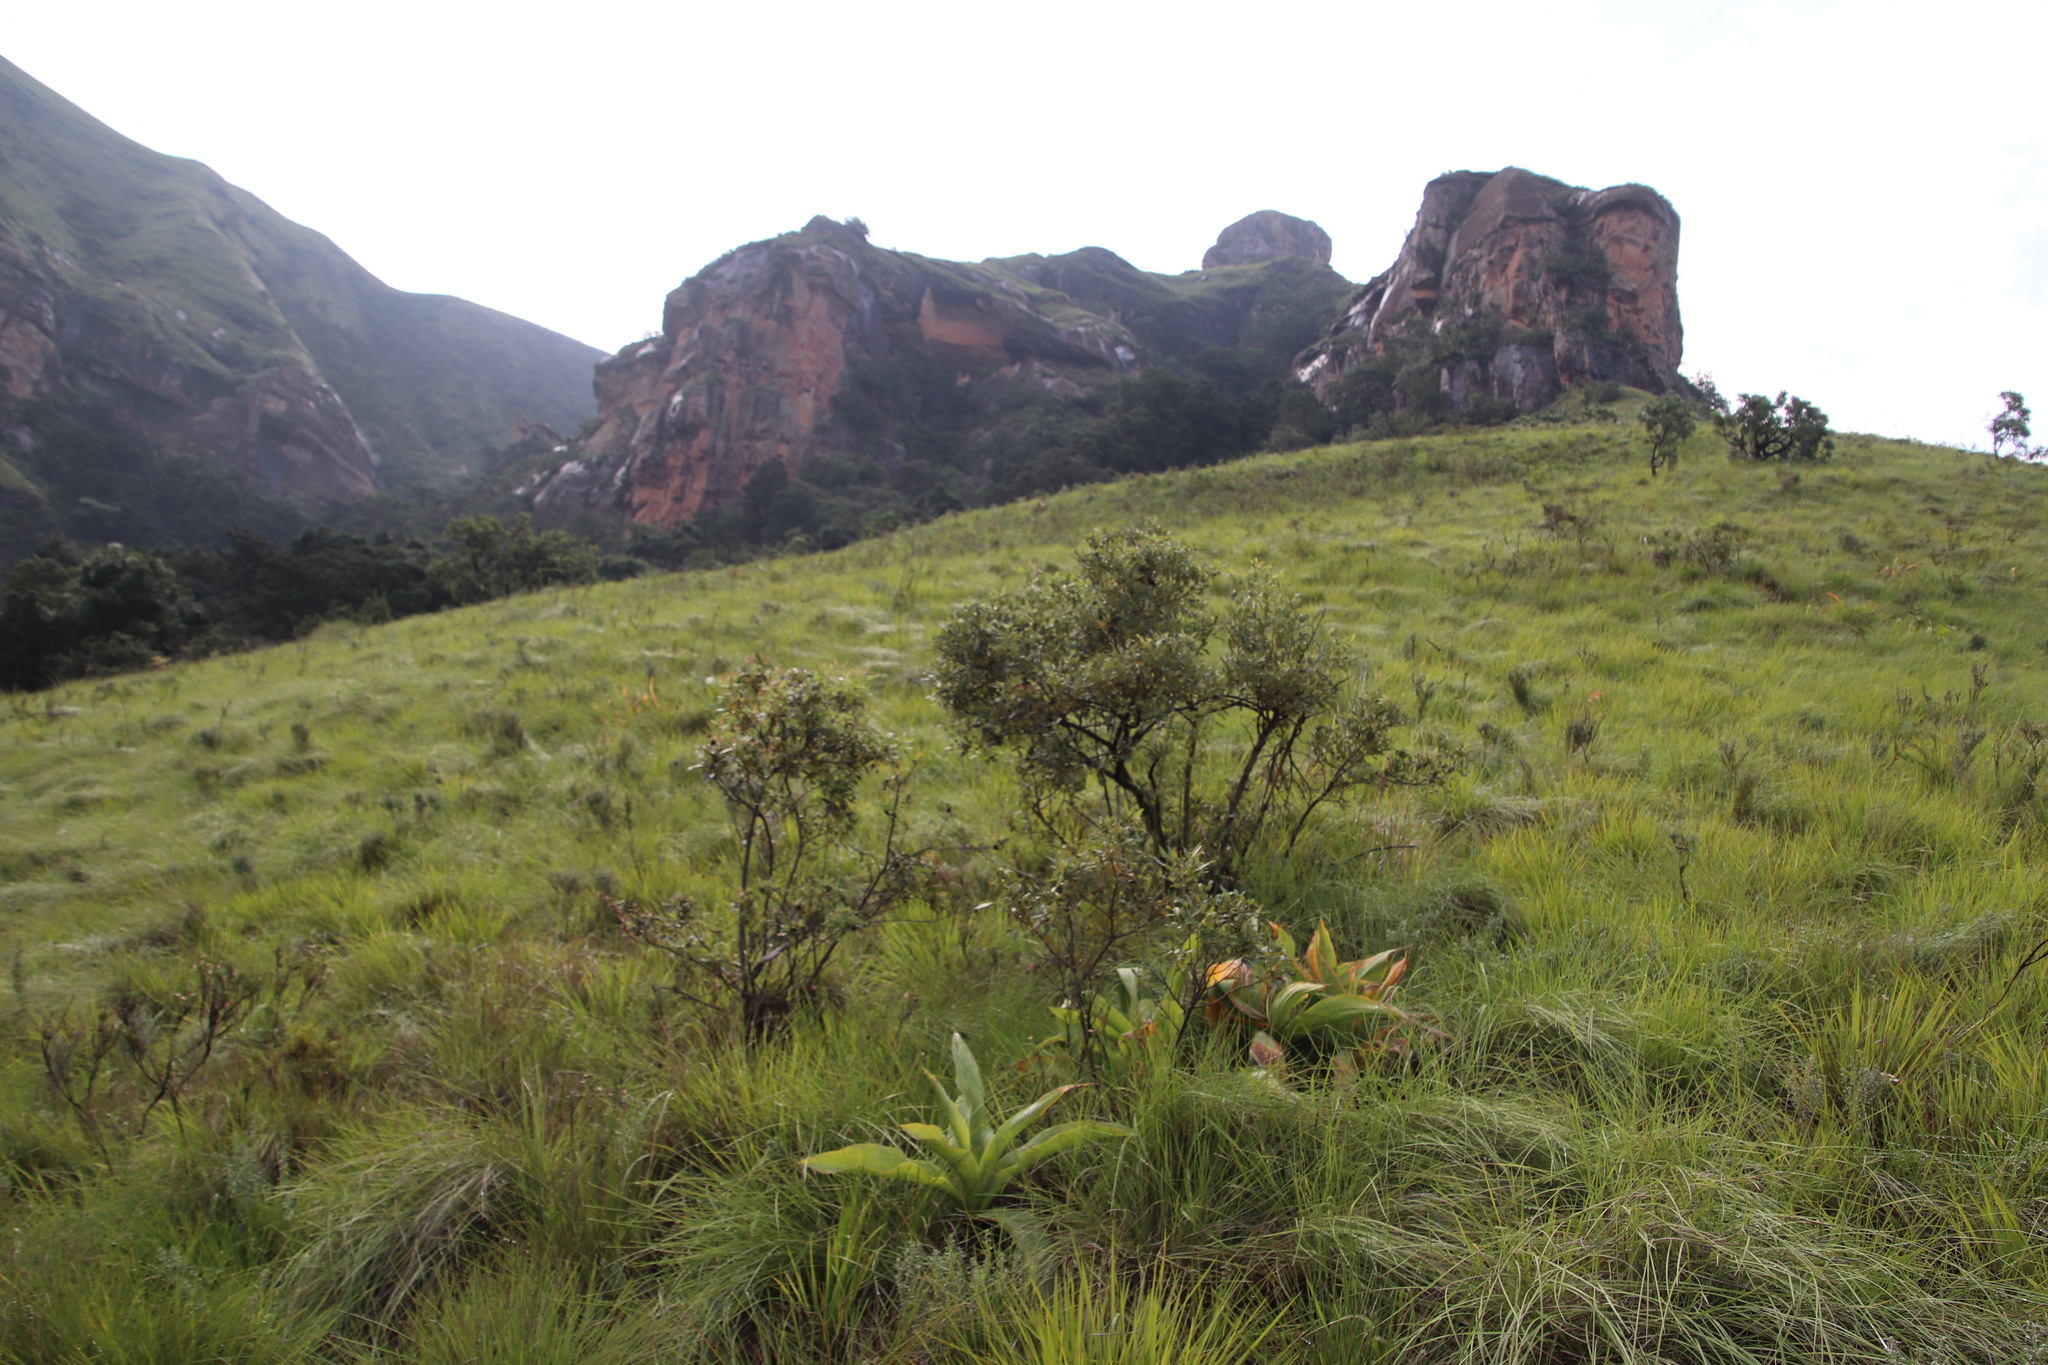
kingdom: Plantae
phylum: Tracheophyta
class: Magnoliopsida
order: Sapindales
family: Anacardiaceae
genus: Searsia
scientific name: Searsia tomentosa
